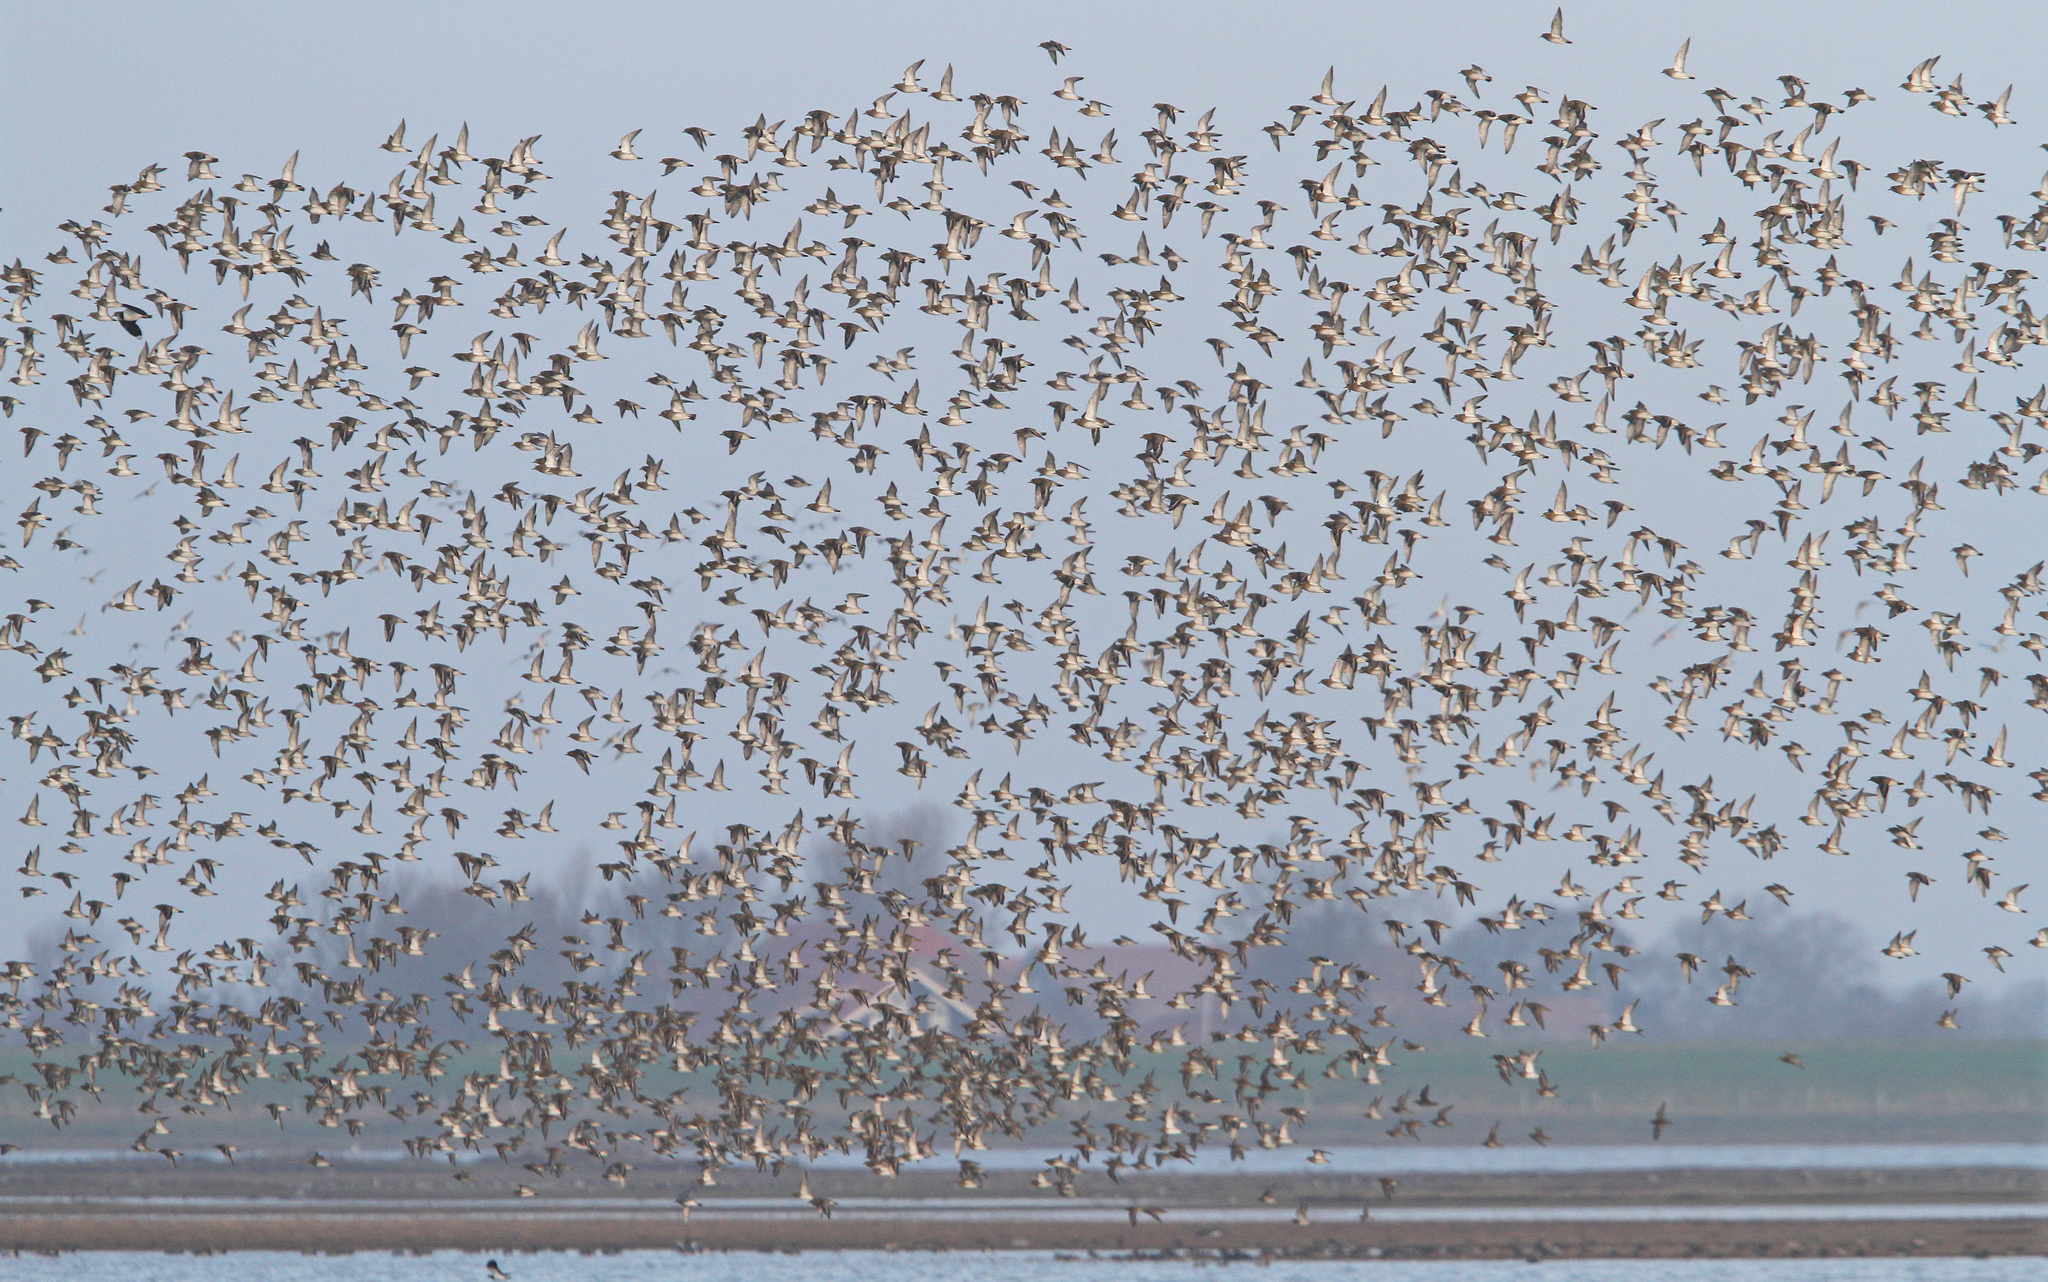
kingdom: Animalia
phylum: Chordata
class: Aves
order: Charadriiformes
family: Charadriidae
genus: Pluvialis
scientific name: Pluvialis apricaria
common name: European golden plover
